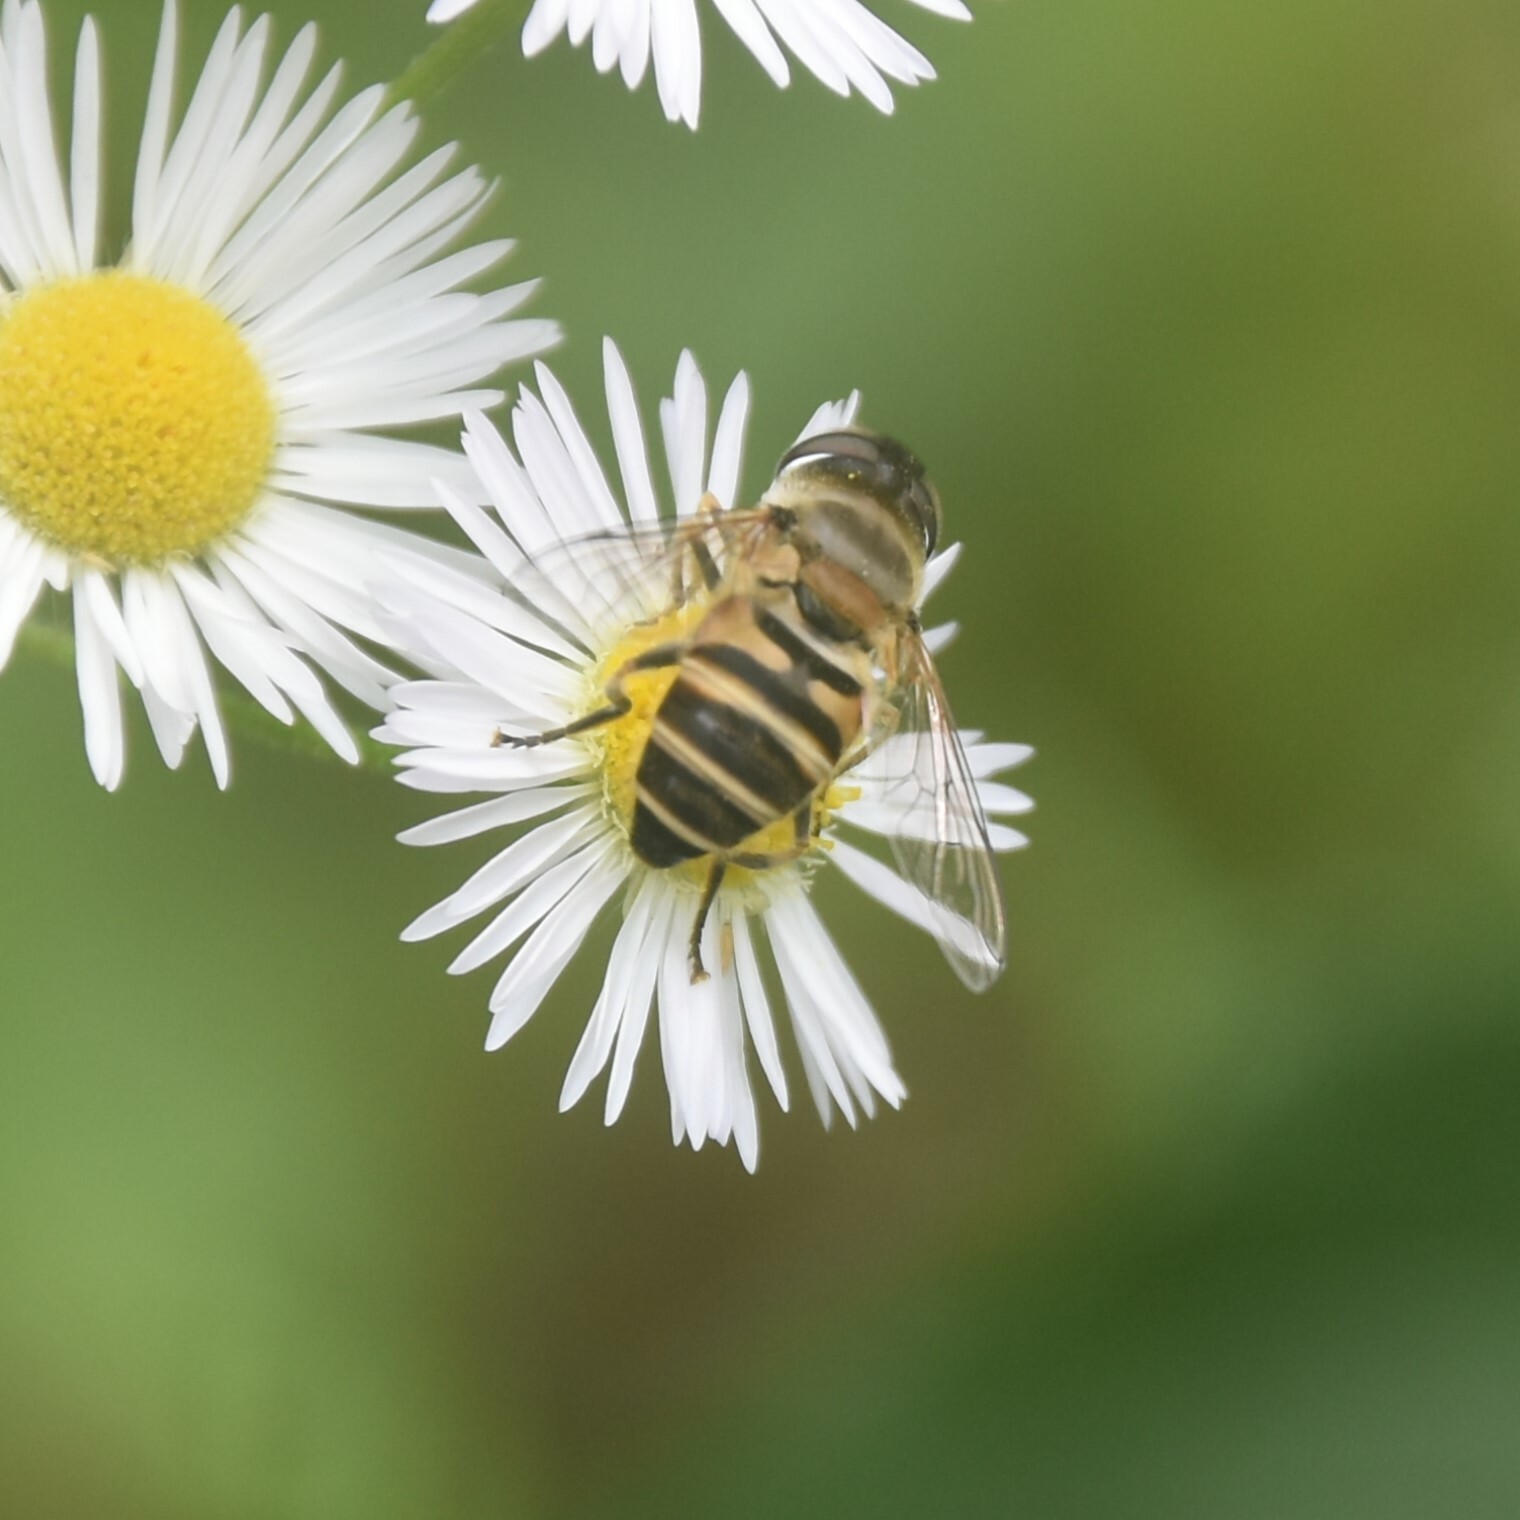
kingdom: Animalia
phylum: Arthropoda
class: Insecta
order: Diptera
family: Syrphidae
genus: Eristalis
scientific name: Eristalis cerealis
